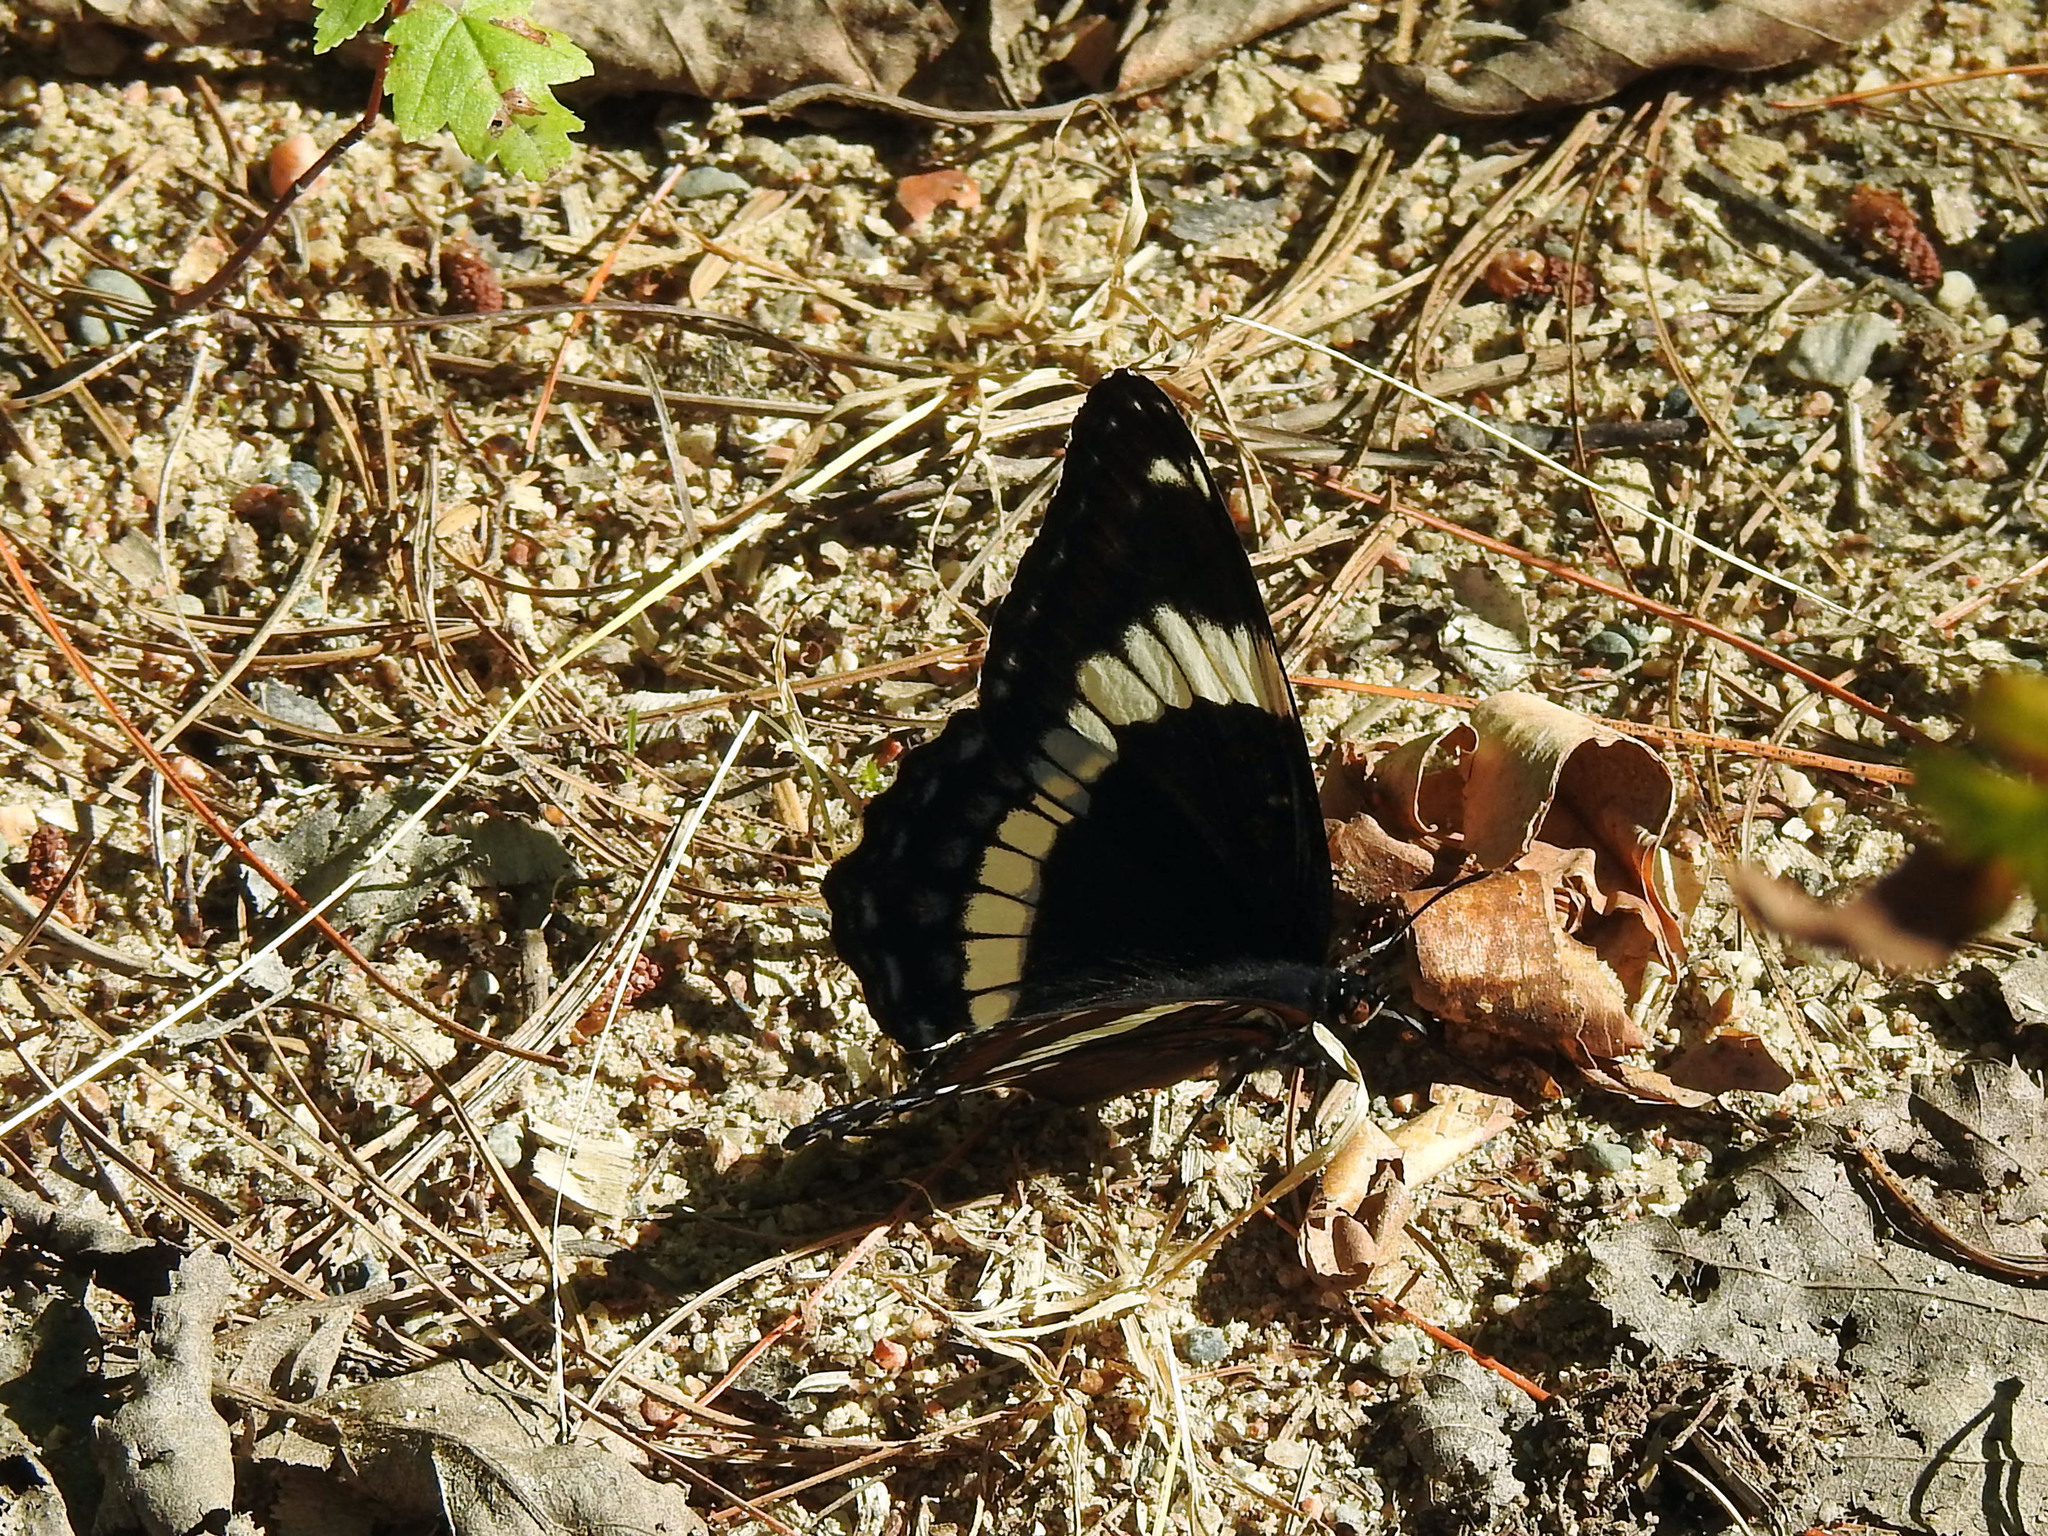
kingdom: Animalia
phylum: Arthropoda
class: Insecta
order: Lepidoptera
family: Nymphalidae
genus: Limenitis
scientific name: Limenitis arthemis
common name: Red-spotted admiral
